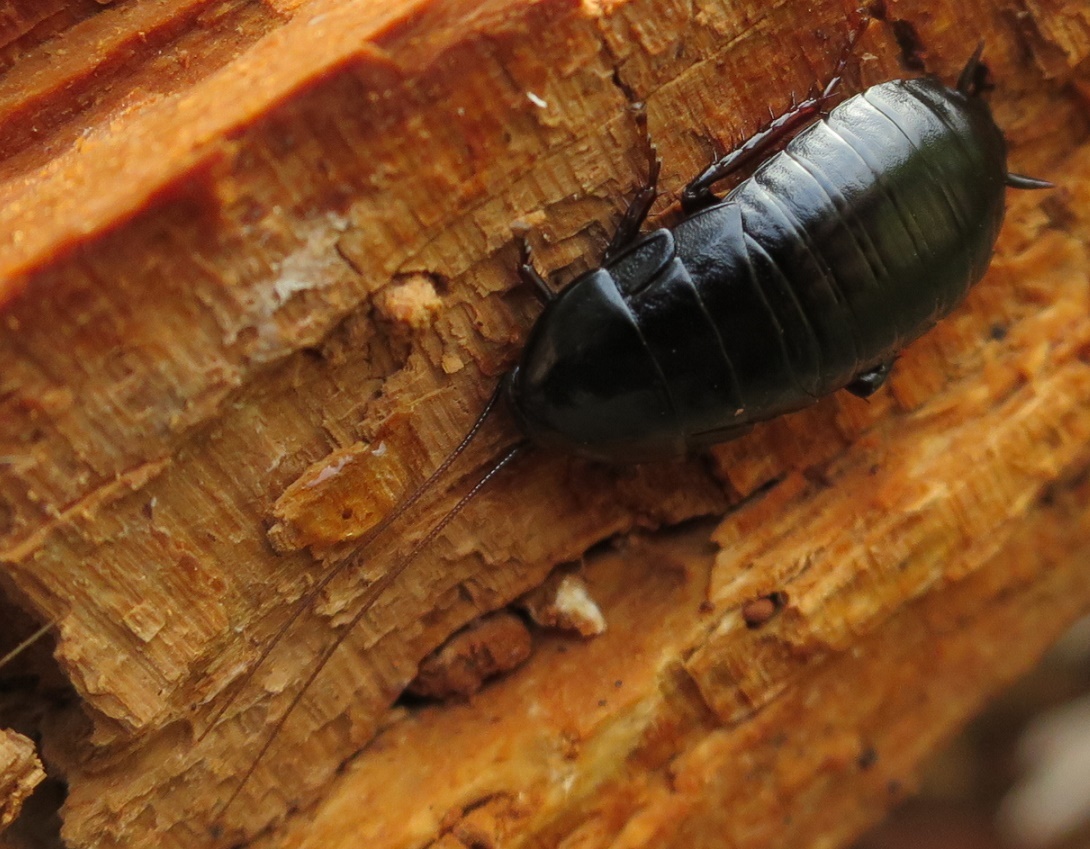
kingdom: Animalia
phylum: Arthropoda
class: Insecta
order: Blattodea
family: Blattidae
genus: Maoriblatta
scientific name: Maoriblatta novaeseelandiae
